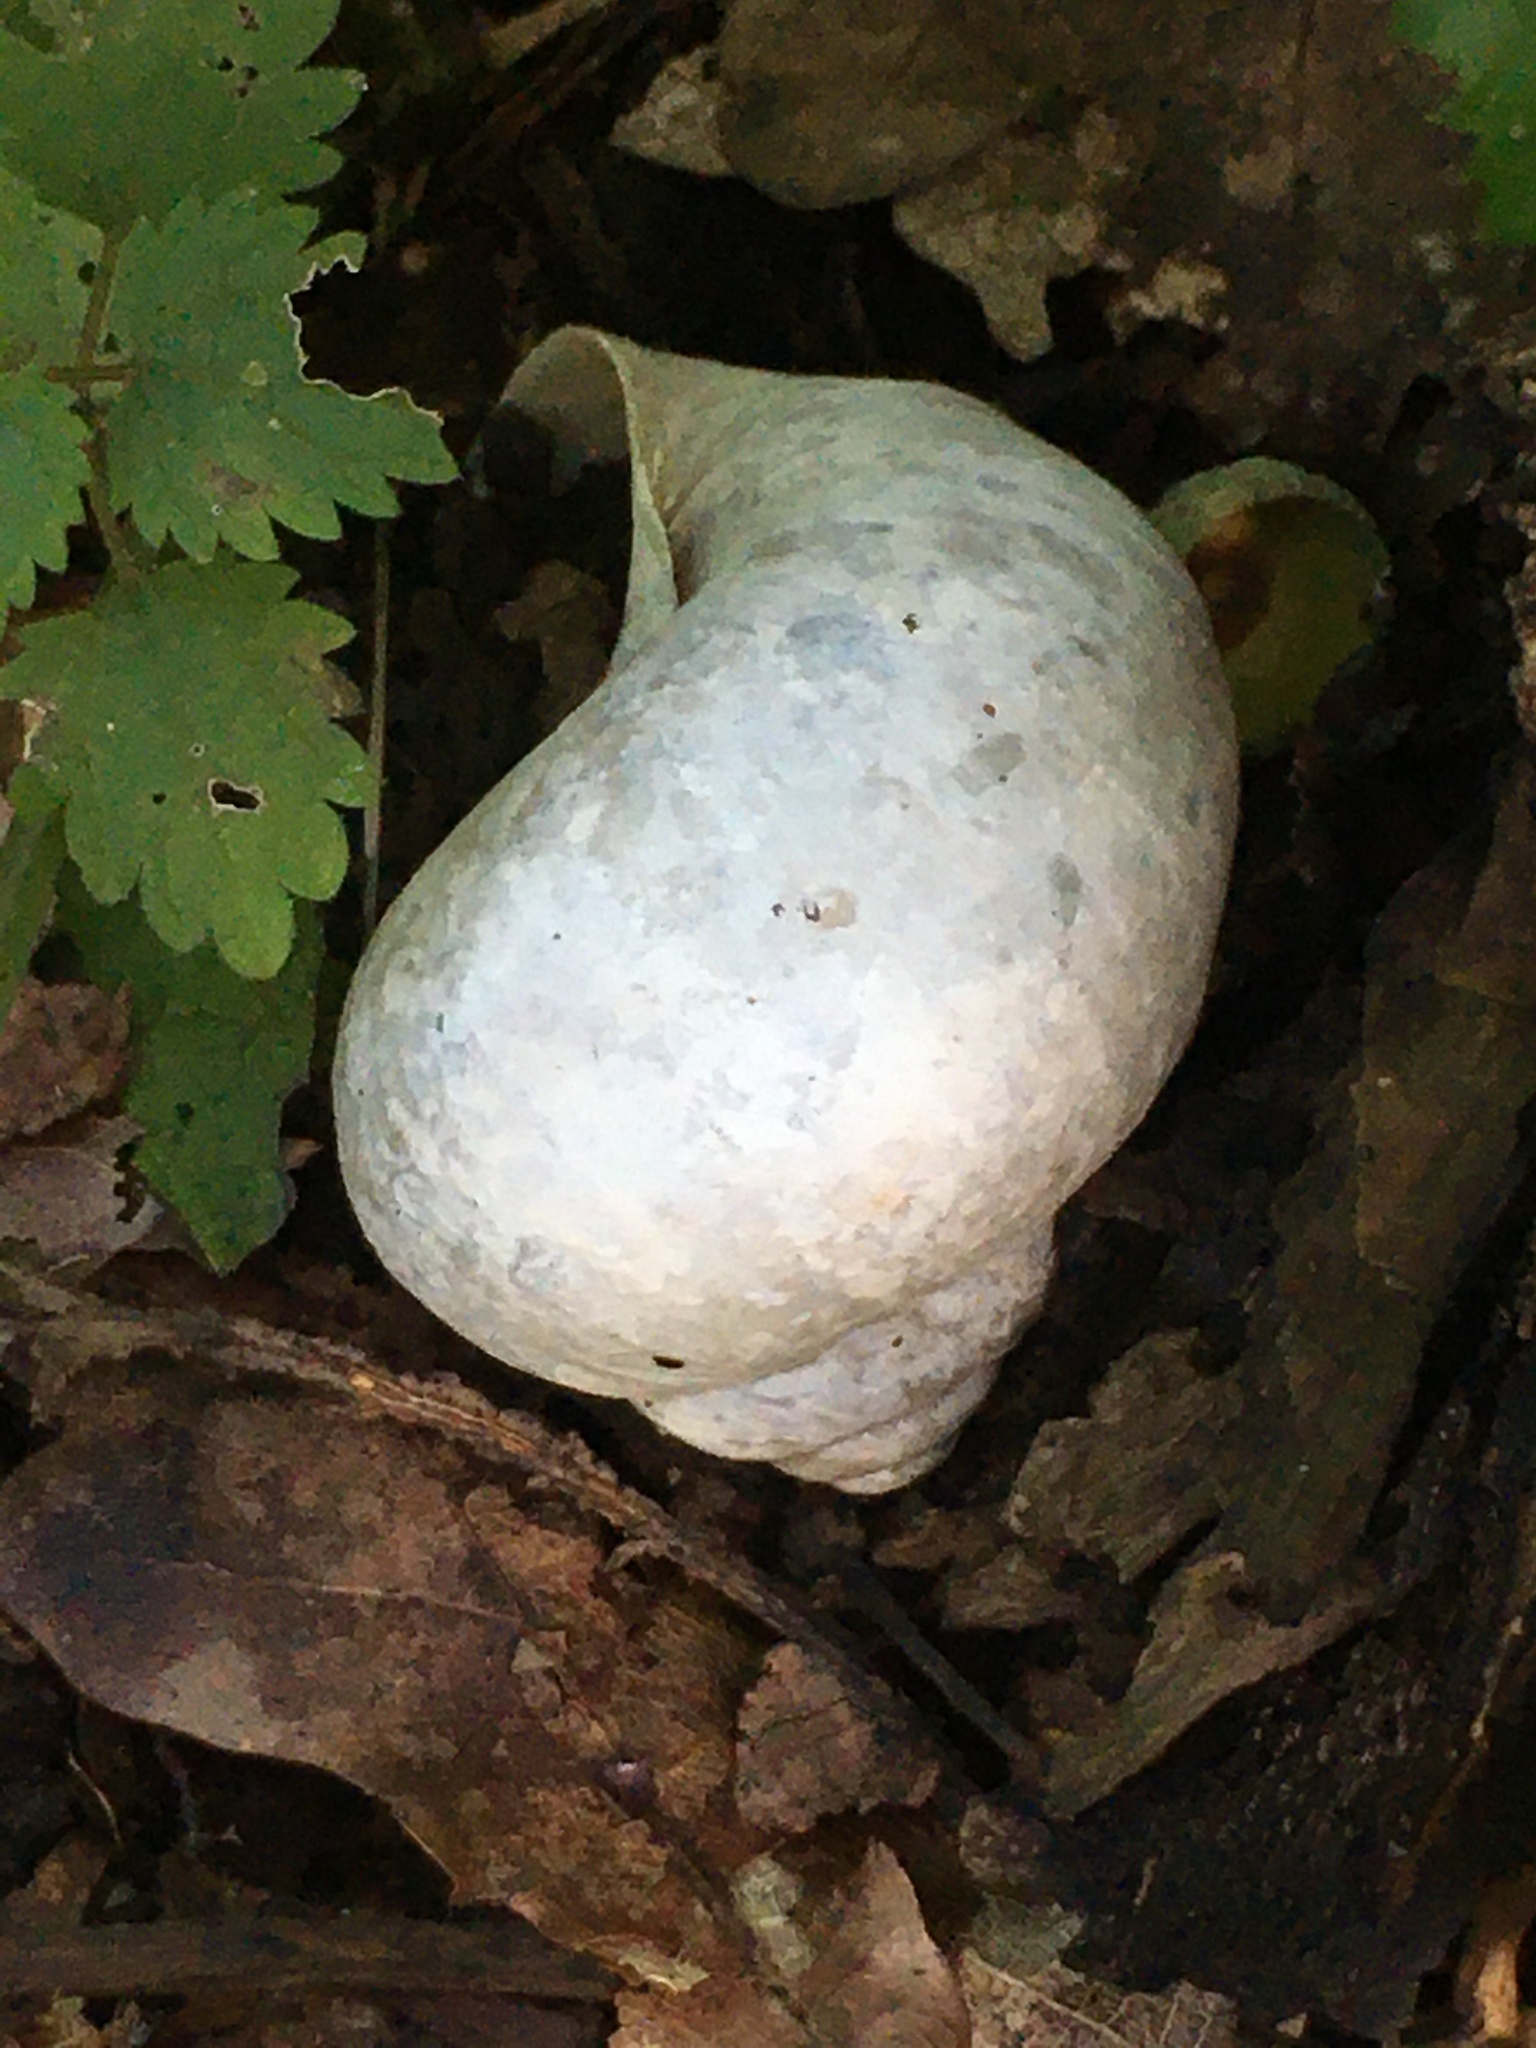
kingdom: Animalia
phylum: Mollusca
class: Gastropoda
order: Stylommatophora
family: Helicidae
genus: Helix
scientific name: Helix pomatia
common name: Roman snail
